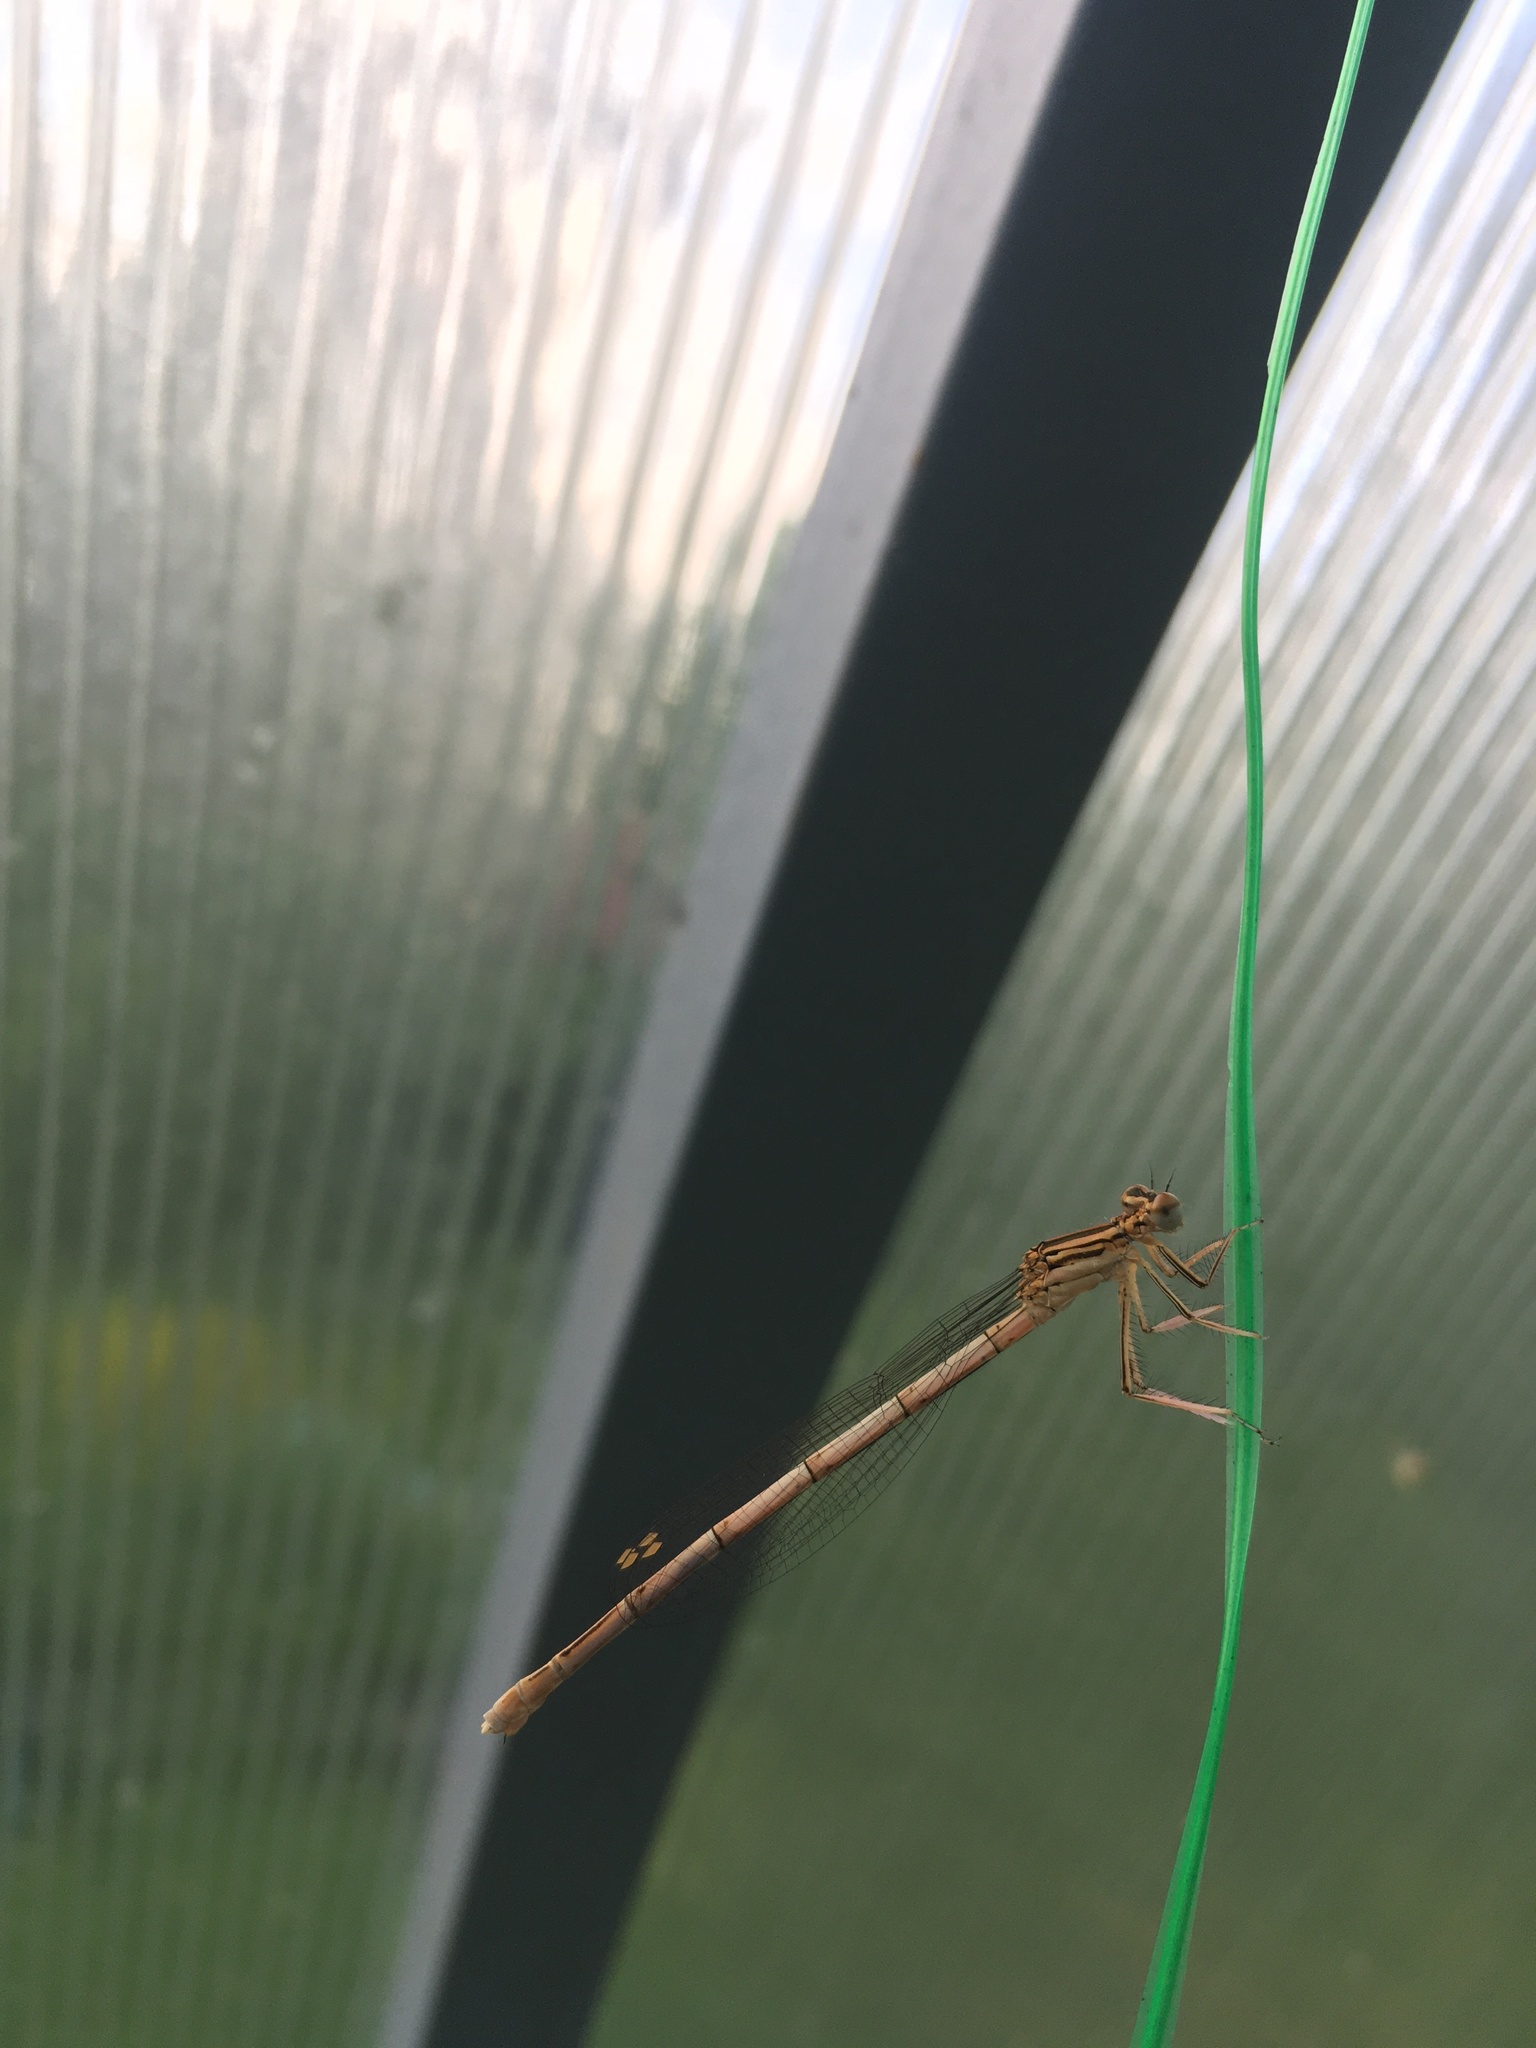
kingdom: Animalia
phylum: Arthropoda
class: Insecta
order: Odonata
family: Platycnemididae
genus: Platycnemis
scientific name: Platycnemis pennipes
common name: White-legged damselfly
